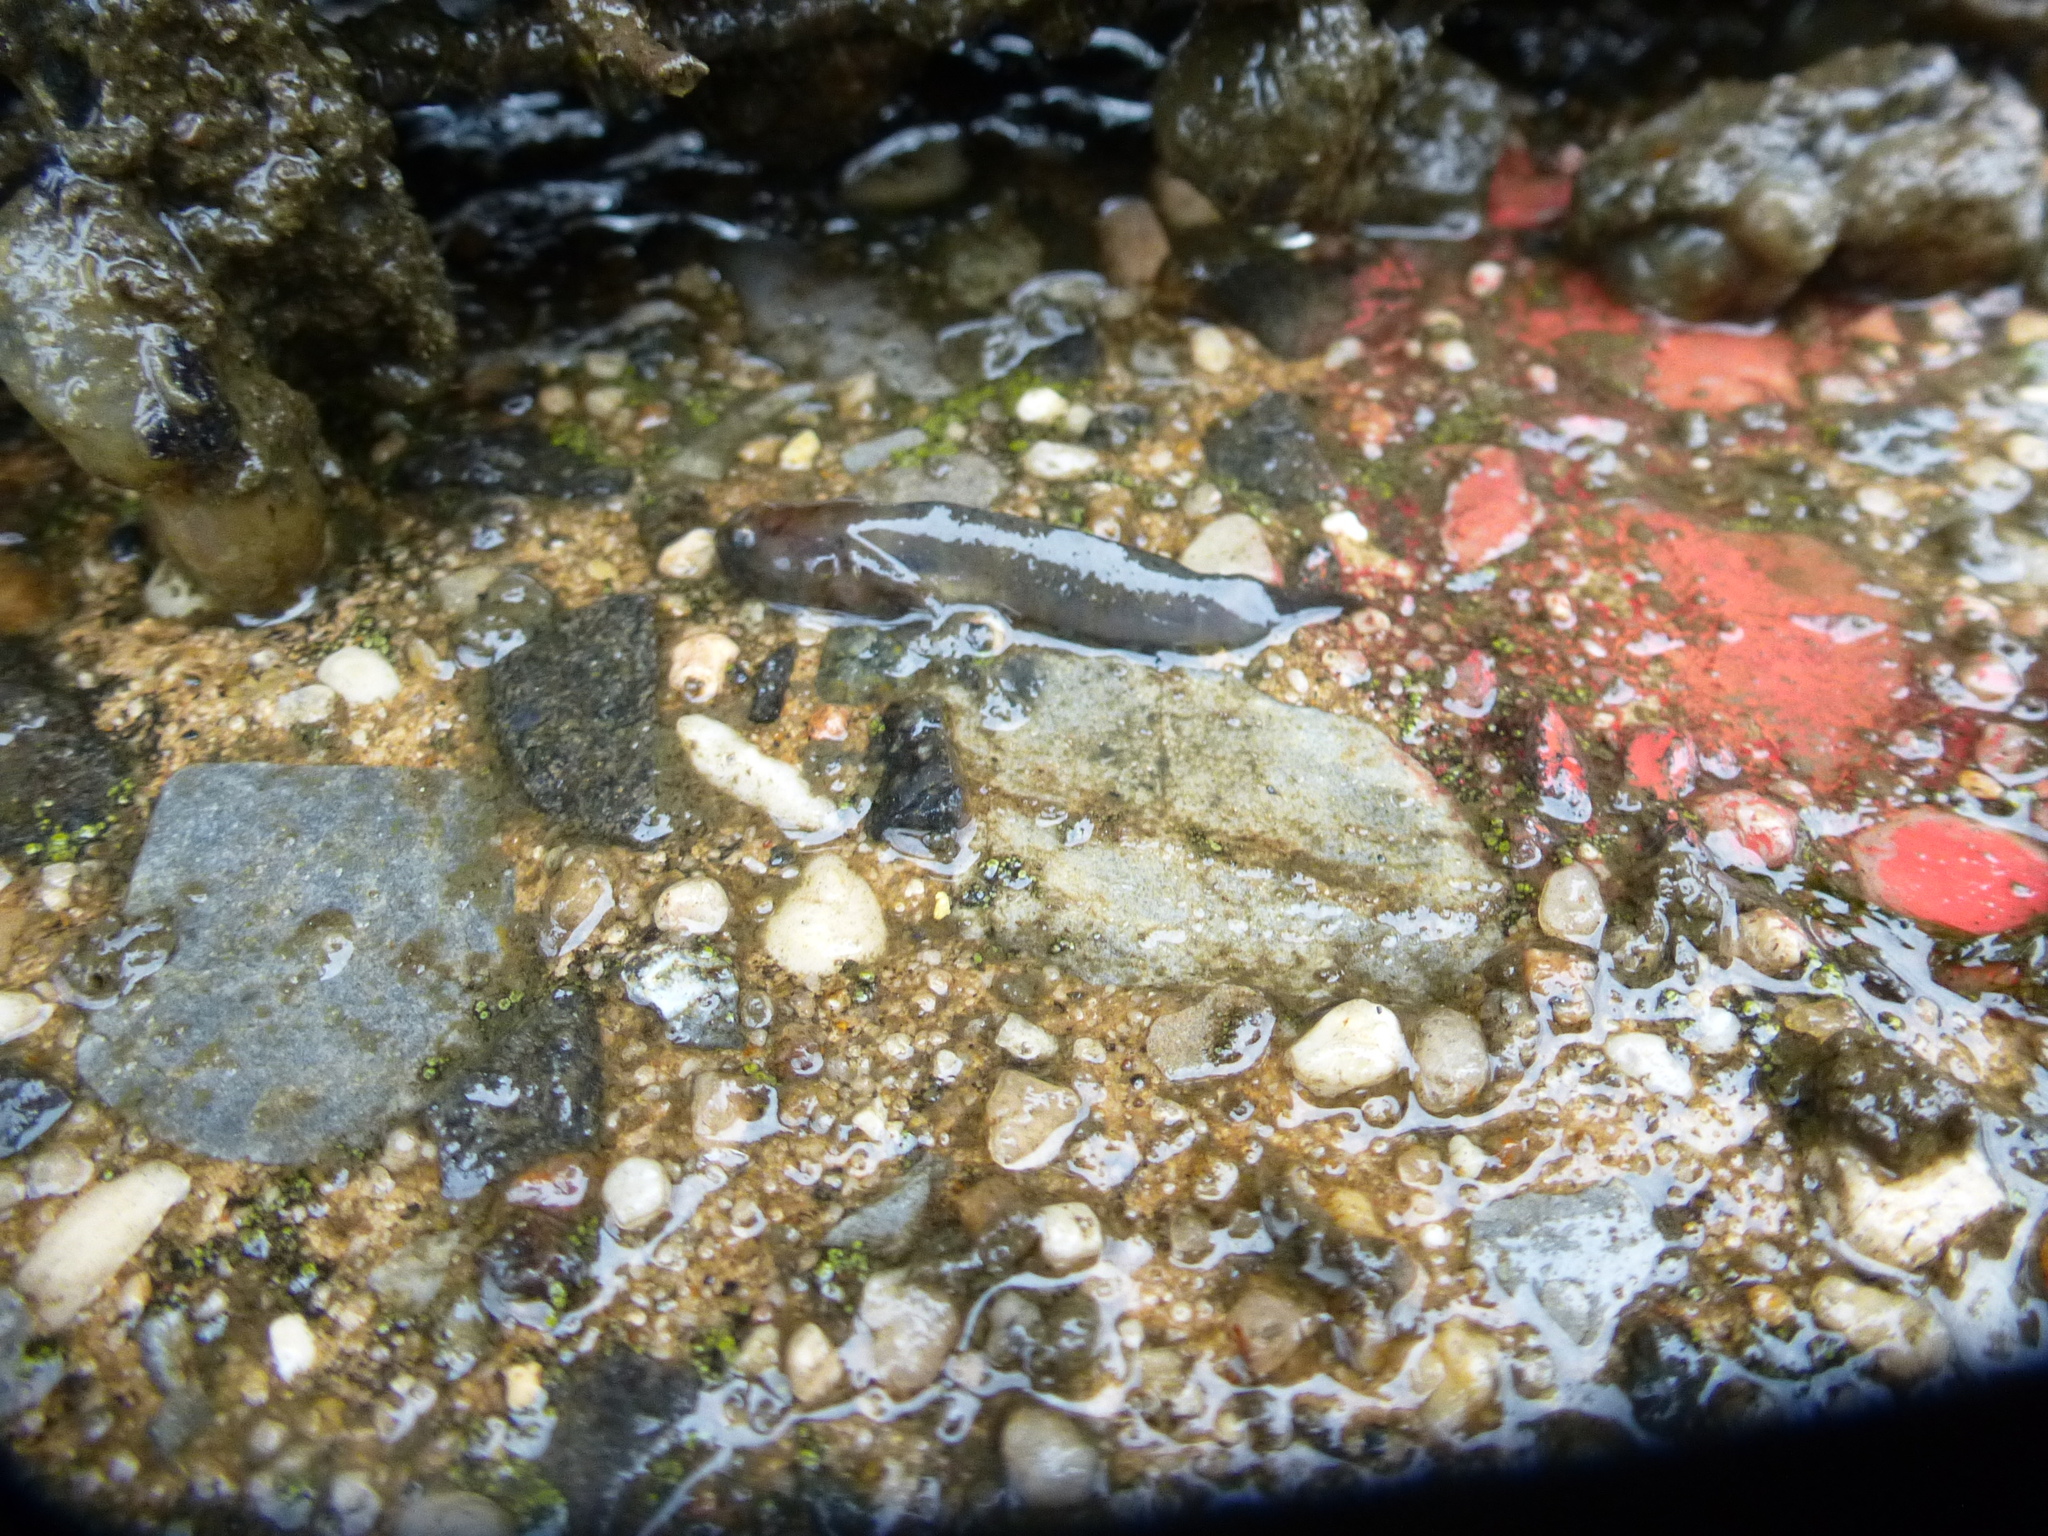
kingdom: Animalia
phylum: Chordata
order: Perciformes
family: Gobiidae
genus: Gobiosoma
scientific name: Gobiosoma bosc
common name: Naked goby
